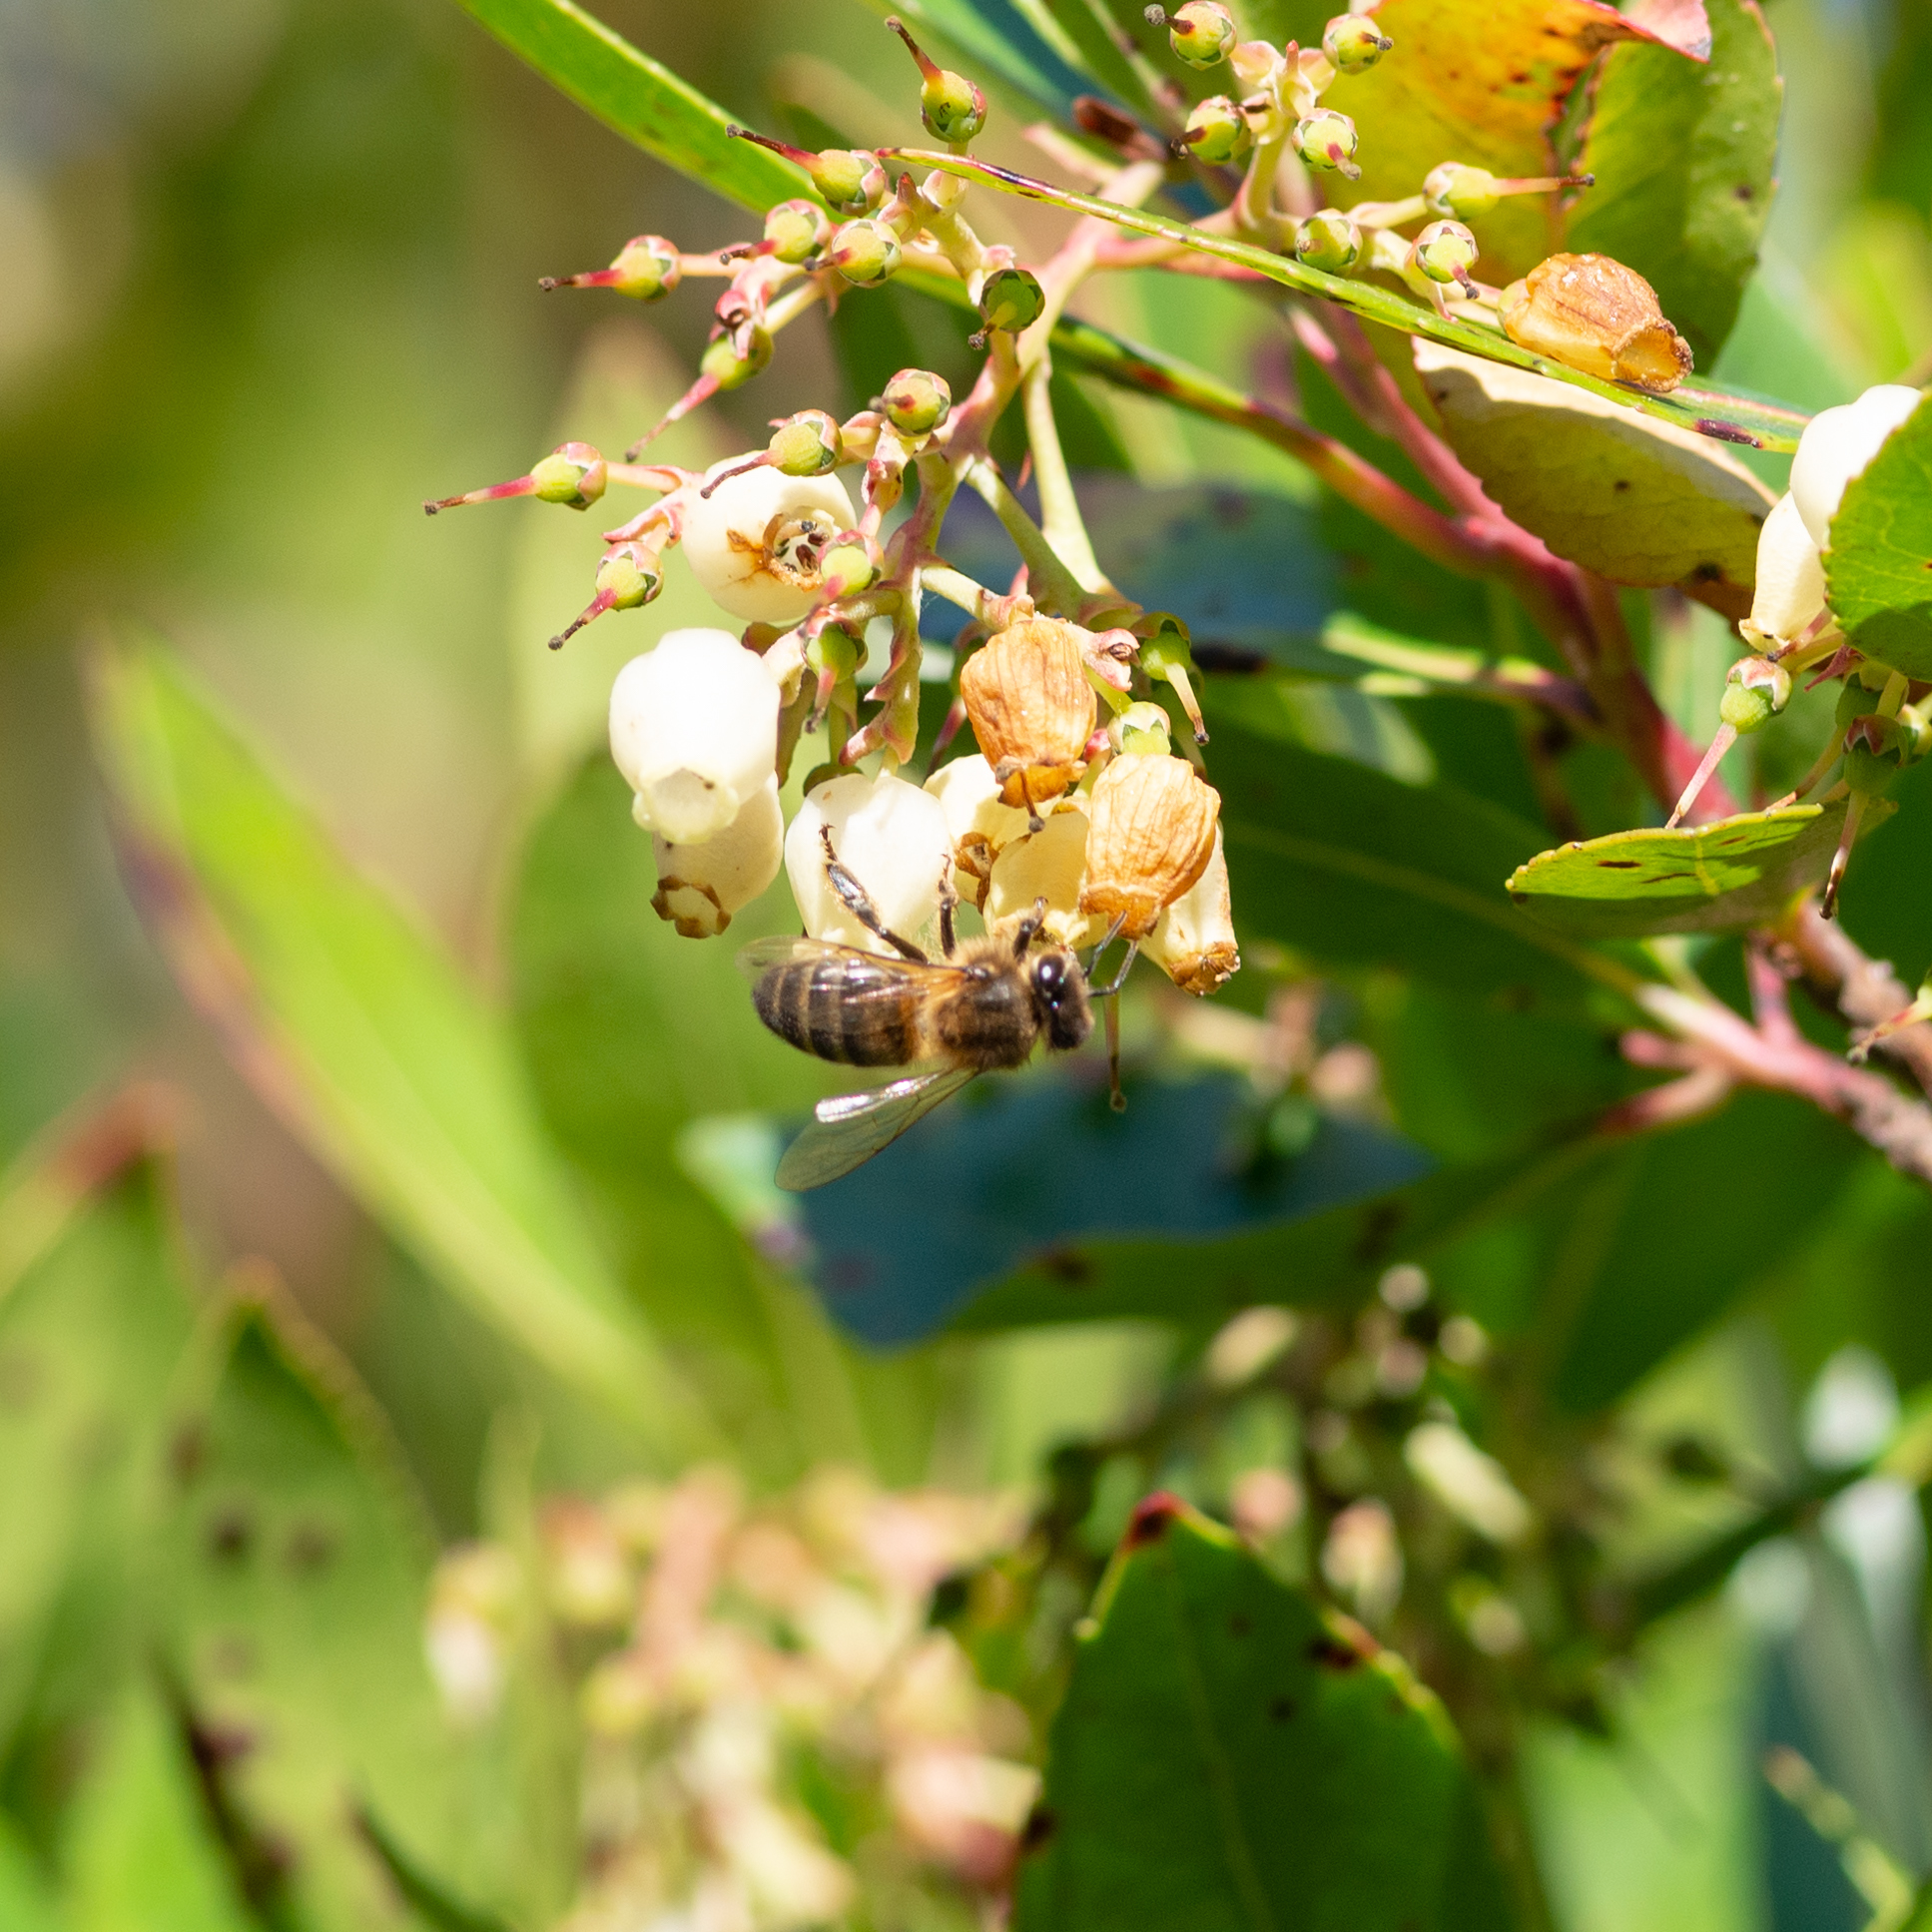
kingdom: Animalia
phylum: Arthropoda
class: Insecta
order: Hymenoptera
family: Apidae
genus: Apis
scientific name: Apis mellifera
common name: Honey bee
